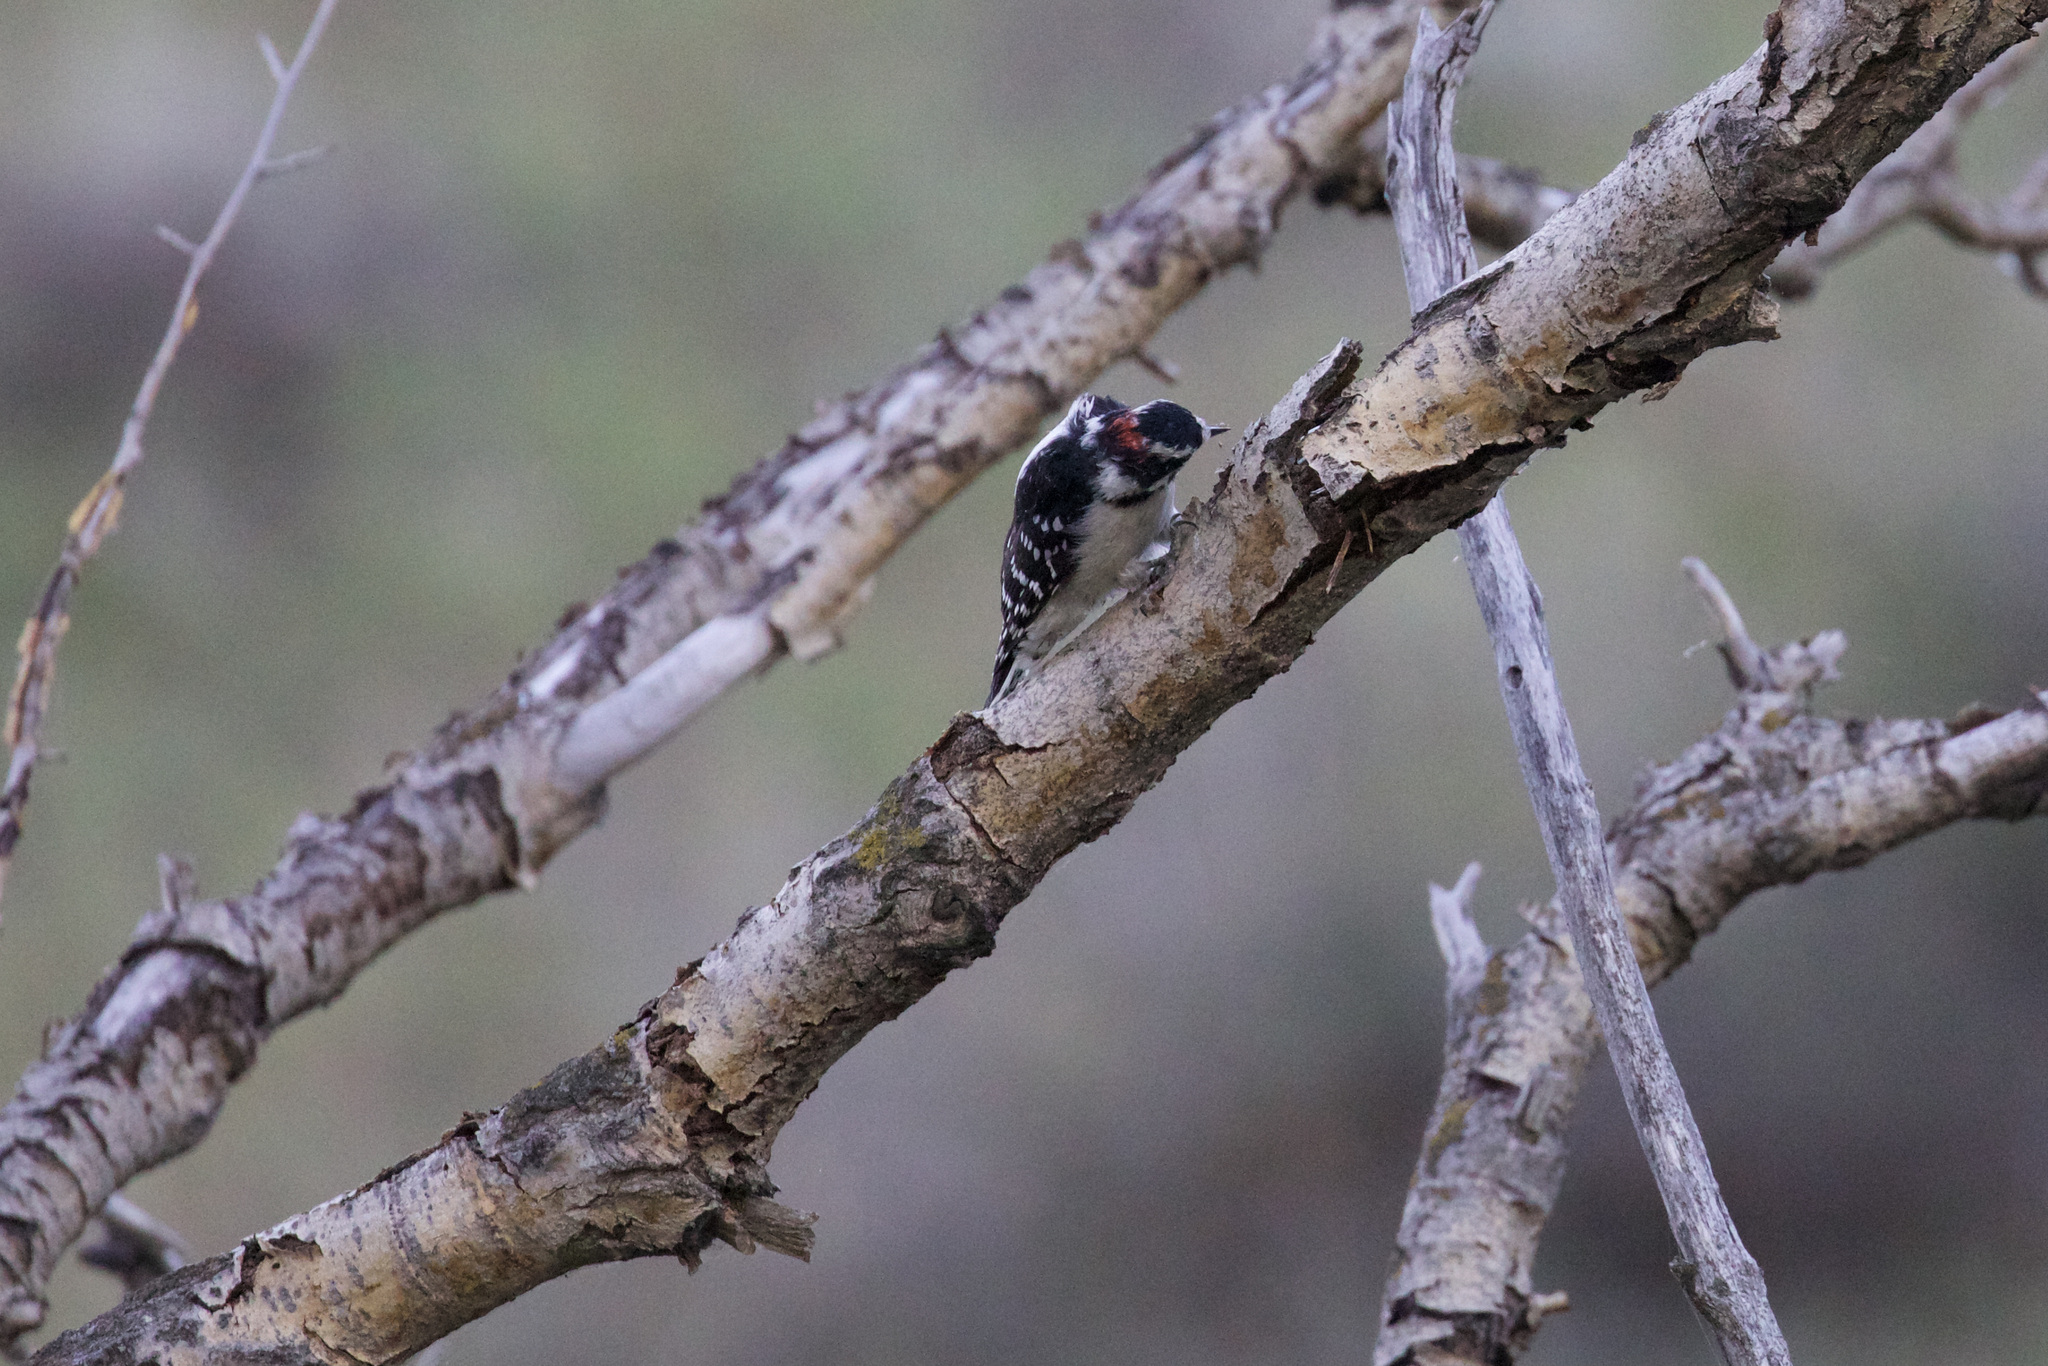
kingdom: Animalia
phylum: Chordata
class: Aves
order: Piciformes
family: Picidae
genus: Dryobates
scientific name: Dryobates pubescens
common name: Downy woodpecker
